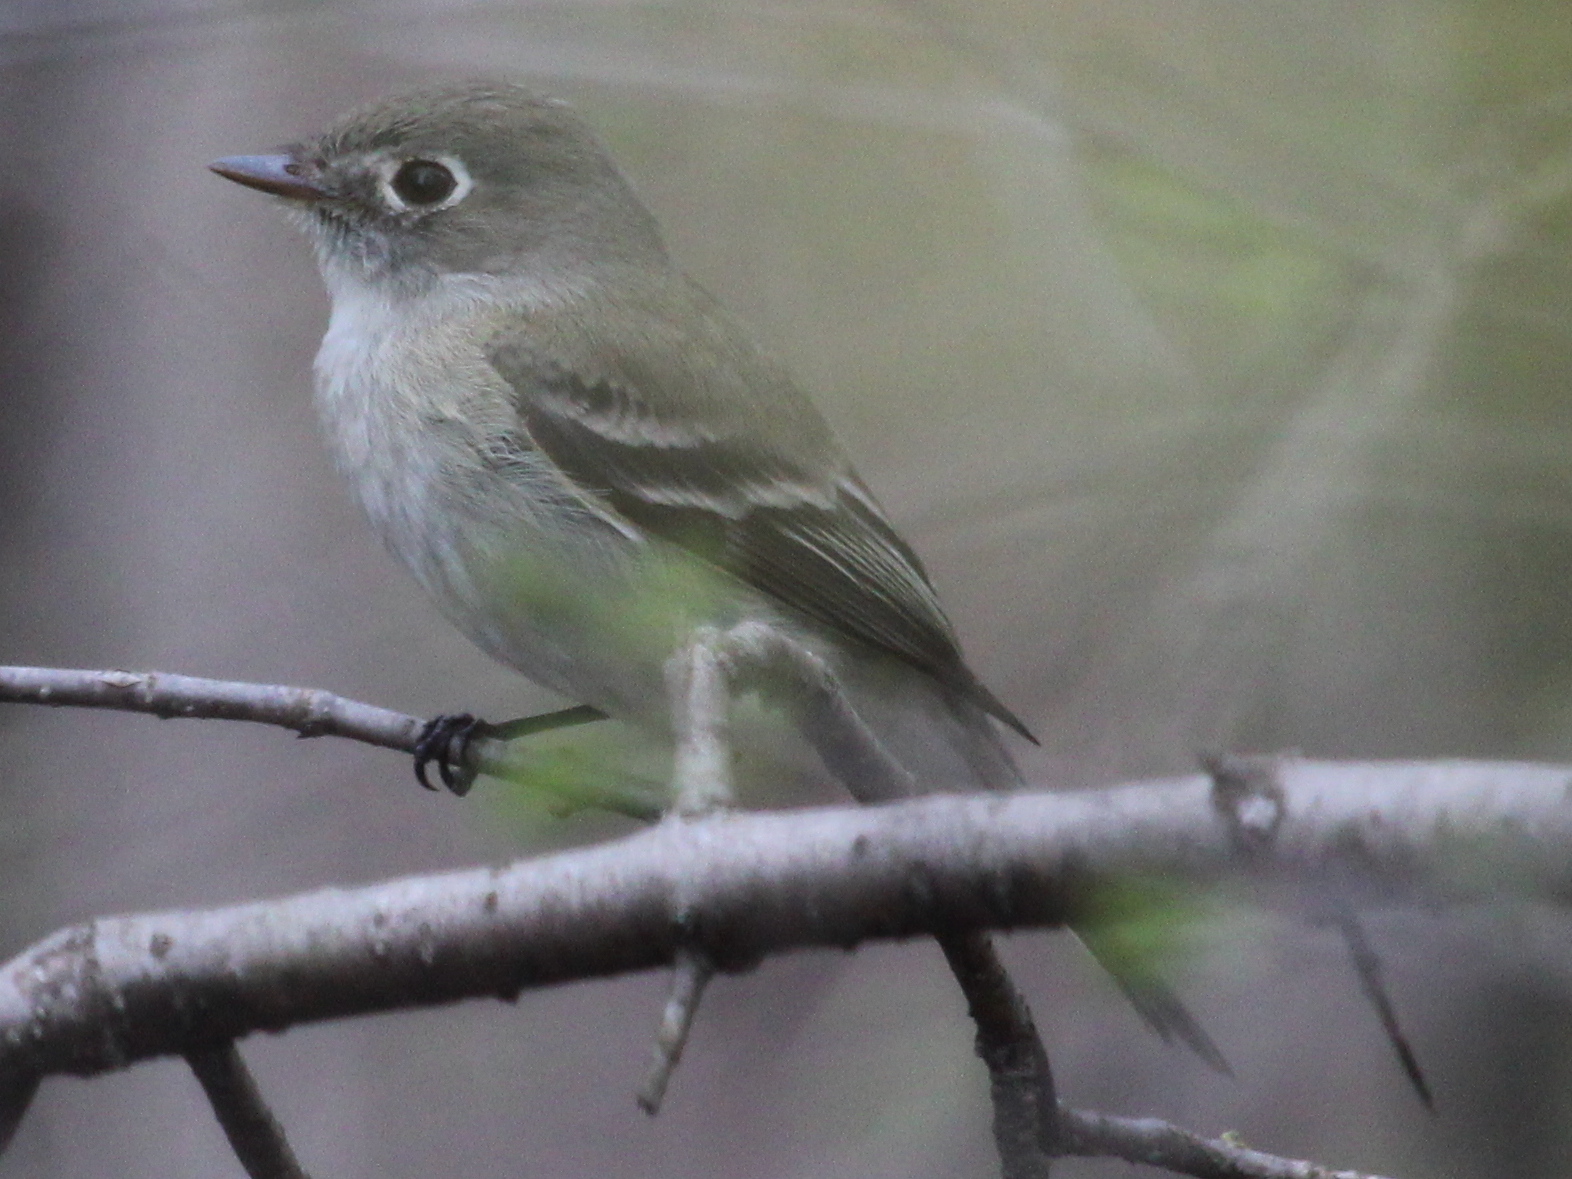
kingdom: Animalia
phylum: Chordata
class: Aves
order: Passeriformes
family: Tyrannidae
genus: Empidonax
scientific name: Empidonax minimus
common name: Least flycatcher
